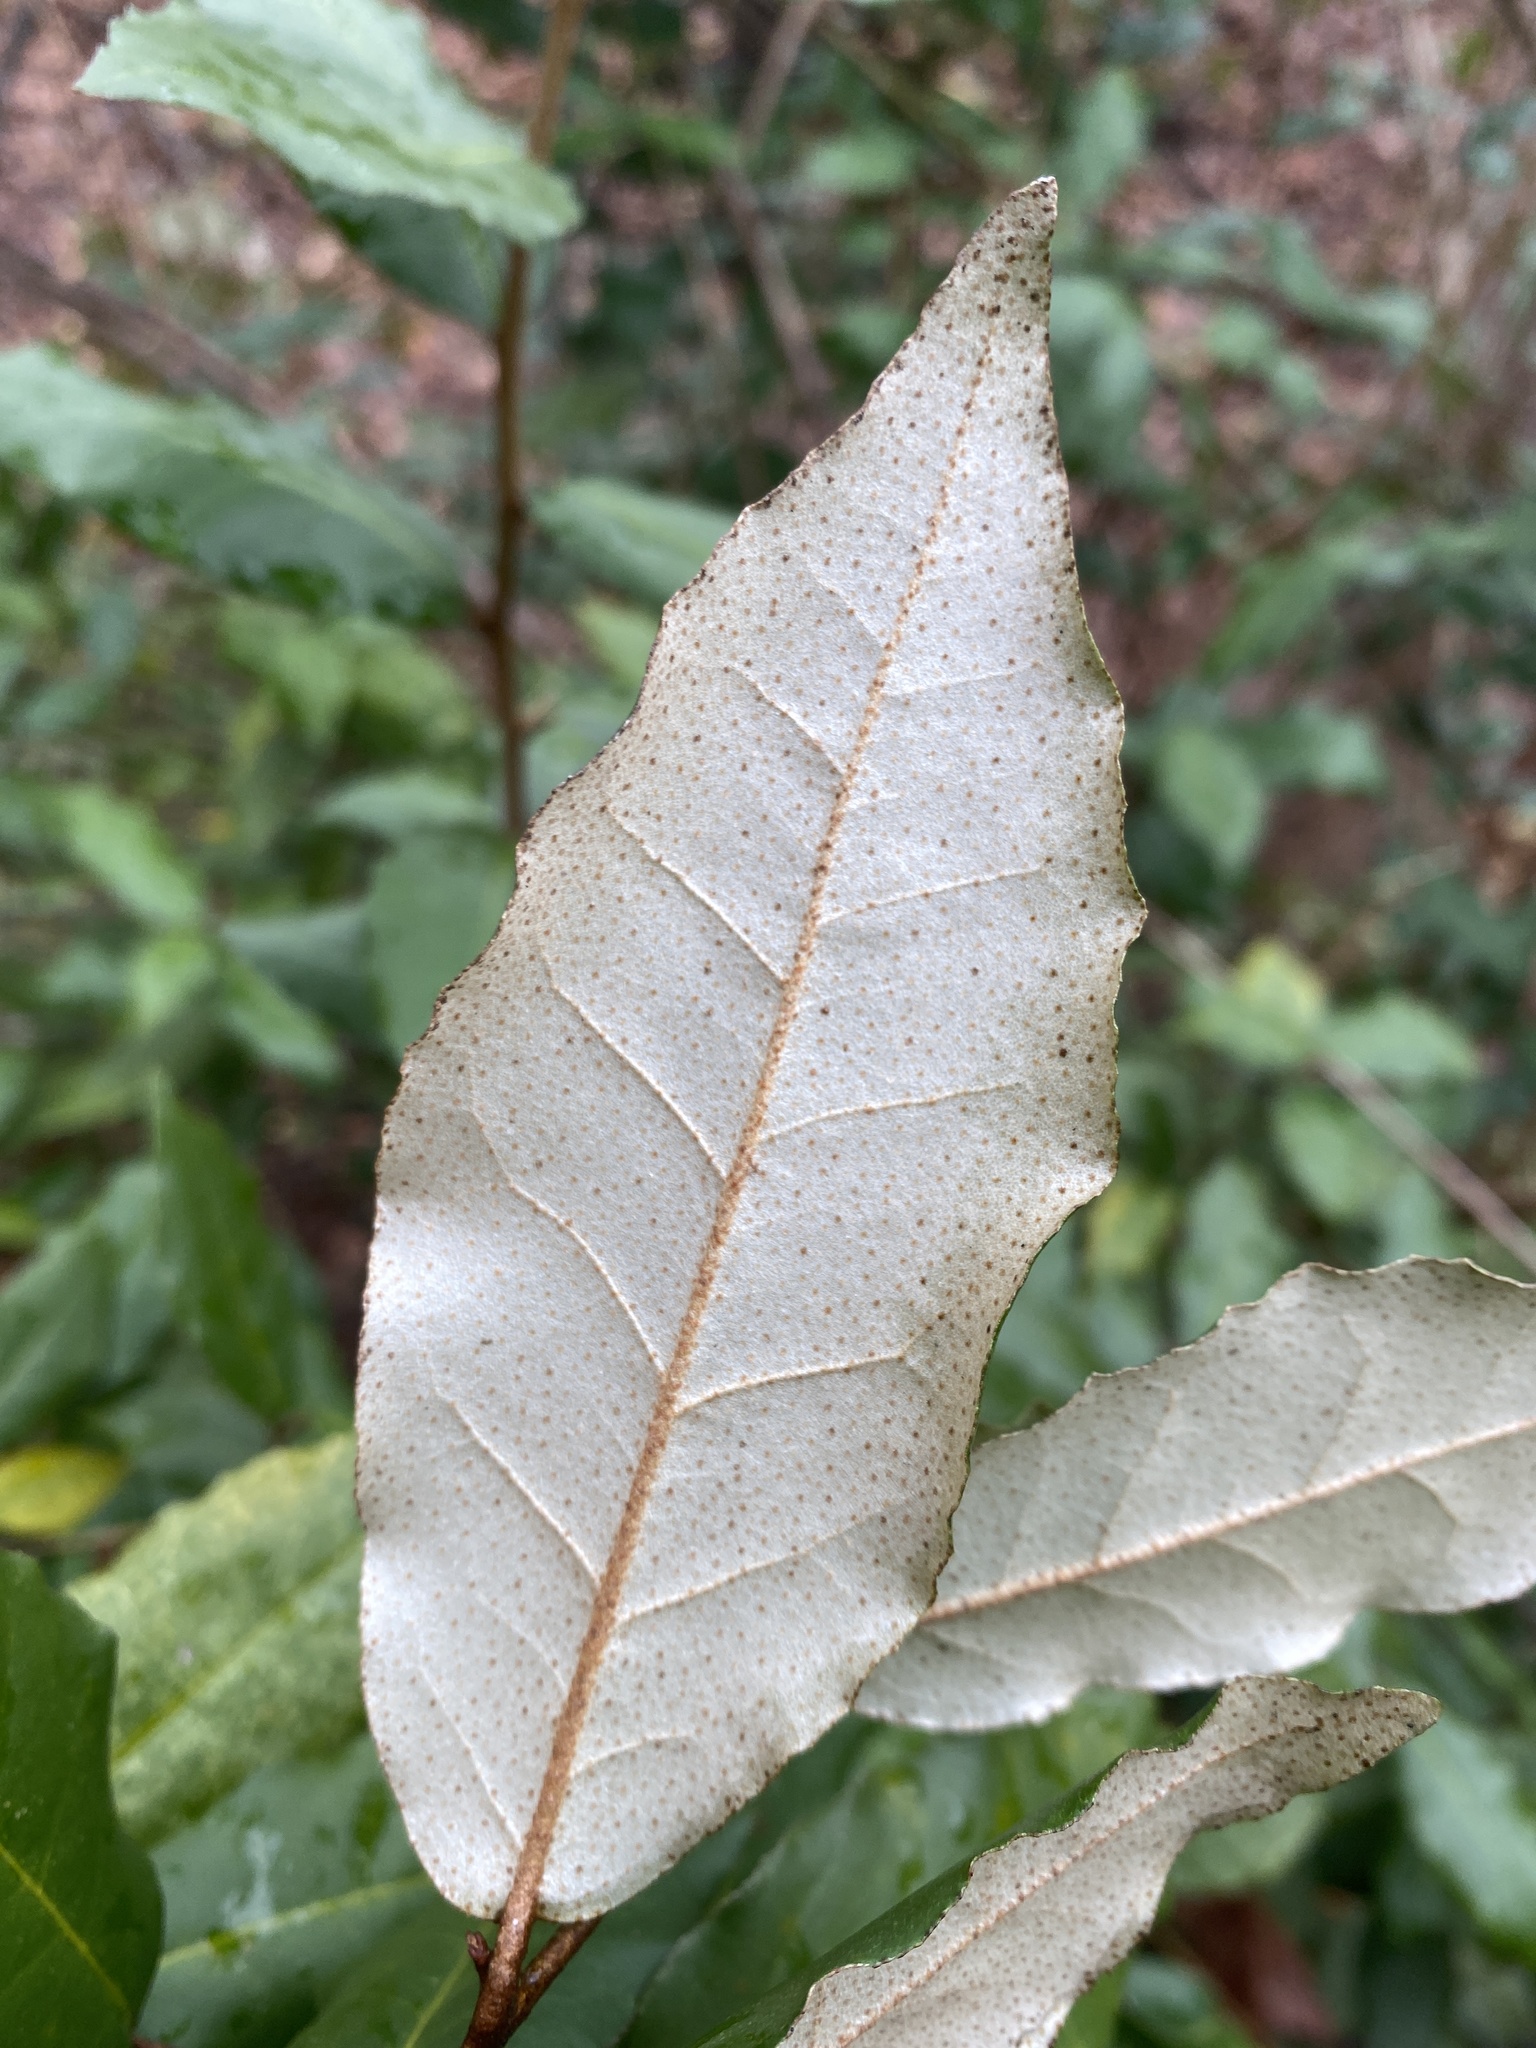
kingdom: Plantae
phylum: Tracheophyta
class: Magnoliopsida
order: Rosales
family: Elaeagnaceae
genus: Elaeagnus
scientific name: Elaeagnus pungens
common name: Spiny oleaster
